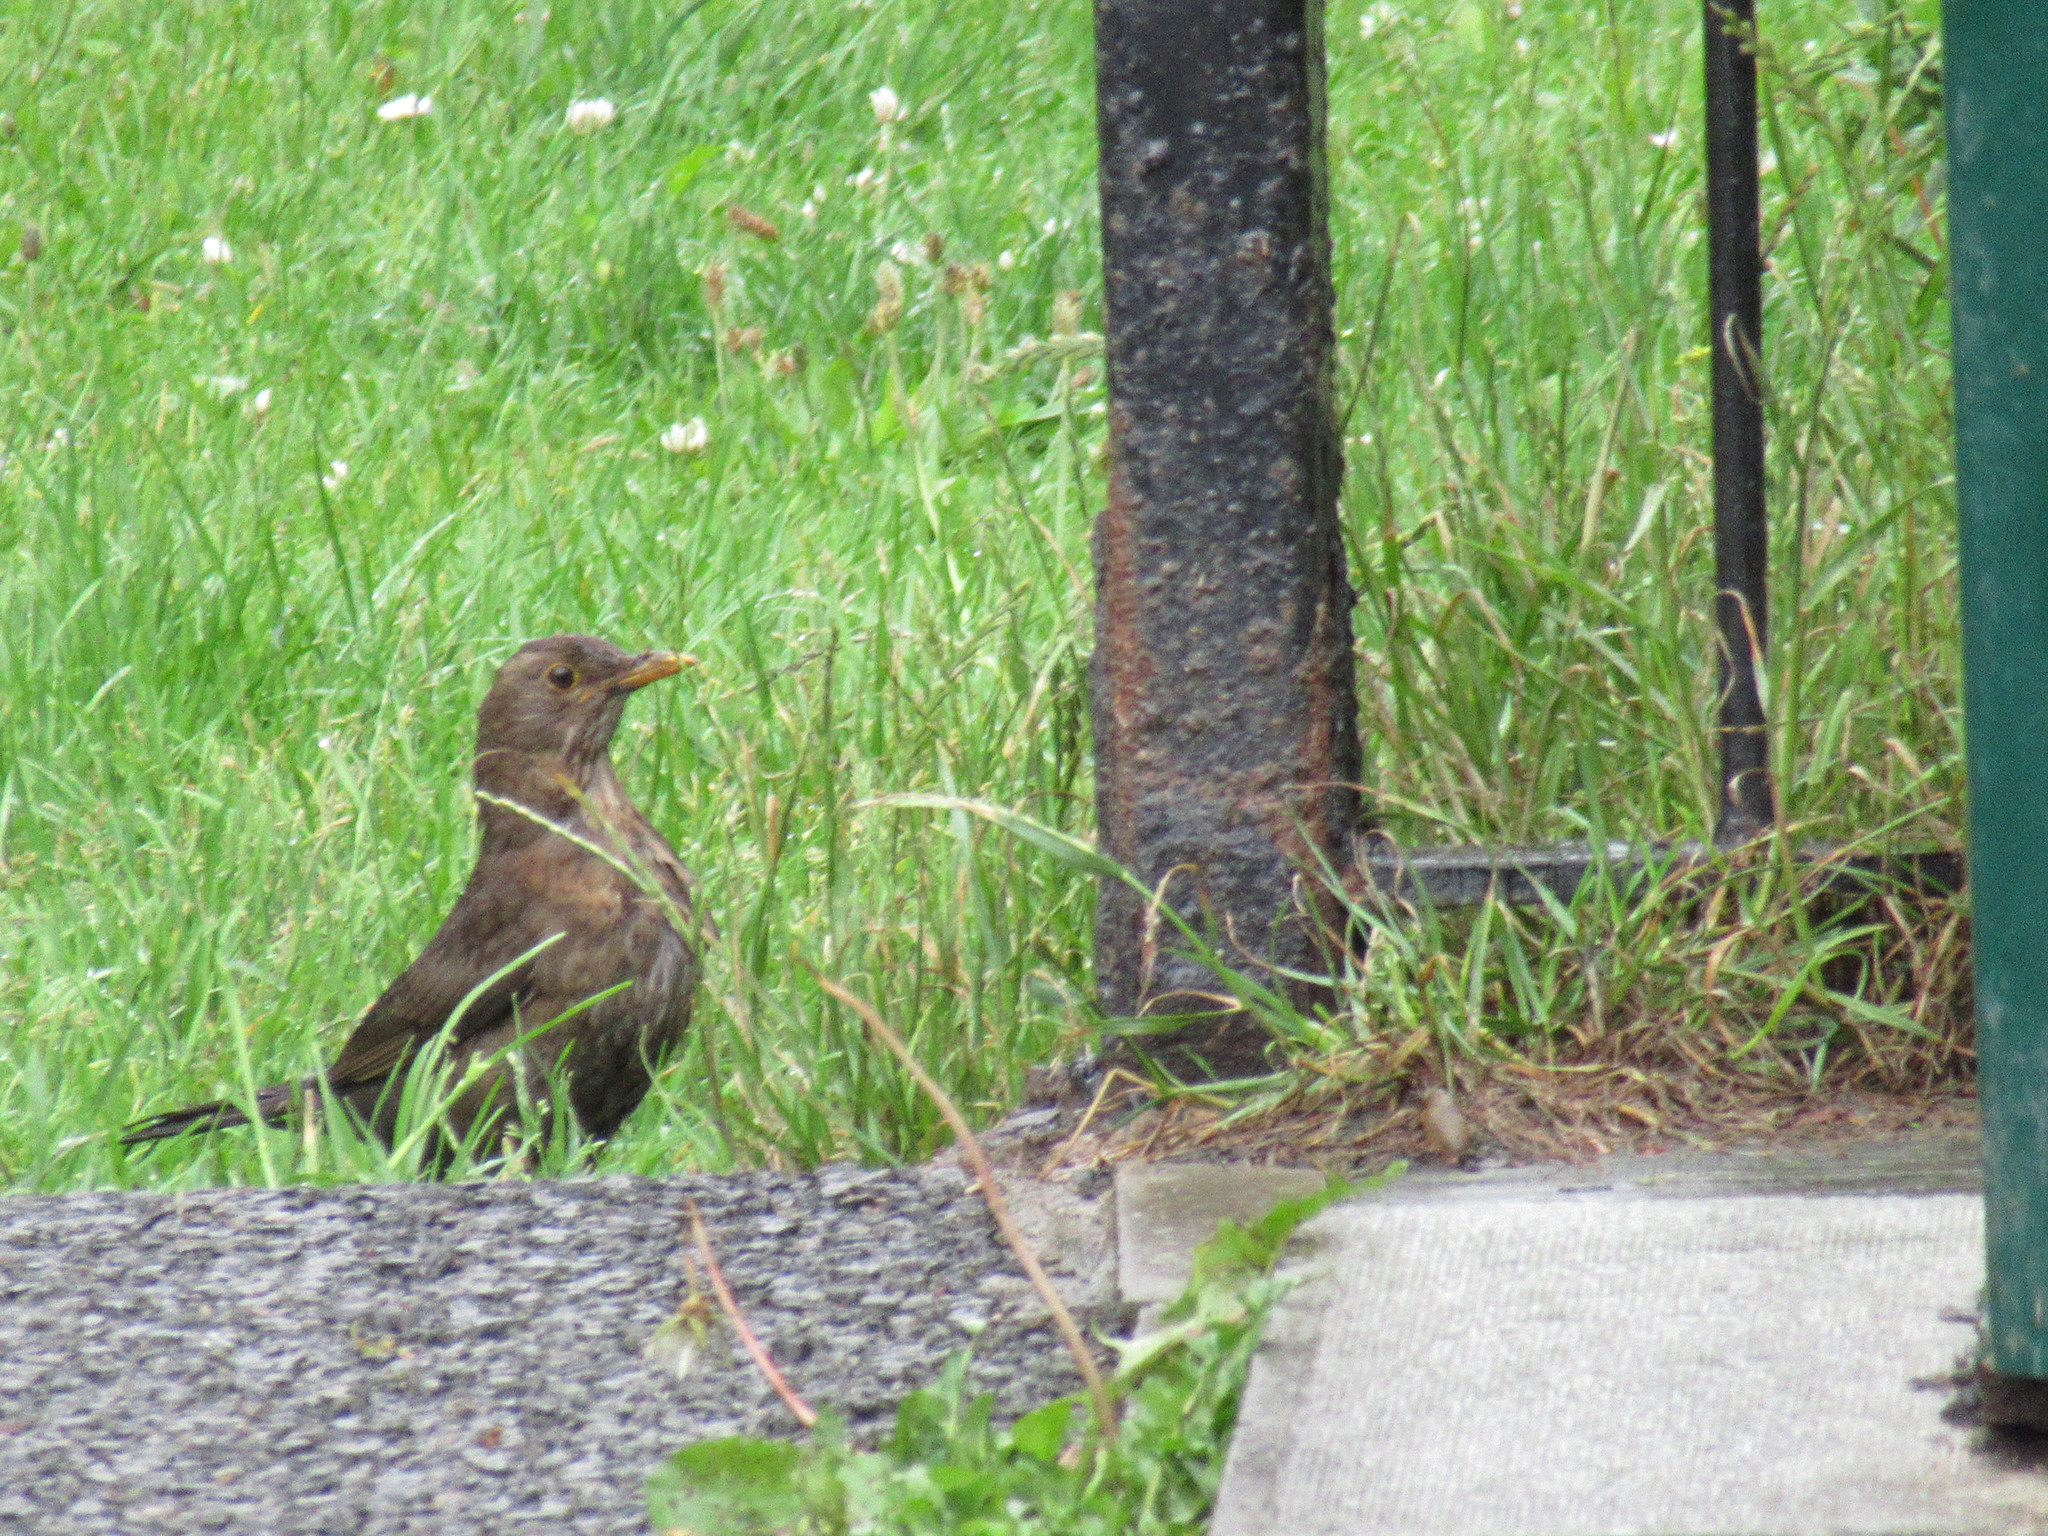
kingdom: Animalia
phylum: Chordata
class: Aves
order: Passeriformes
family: Turdidae
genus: Turdus
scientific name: Turdus merula
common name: Common blackbird
